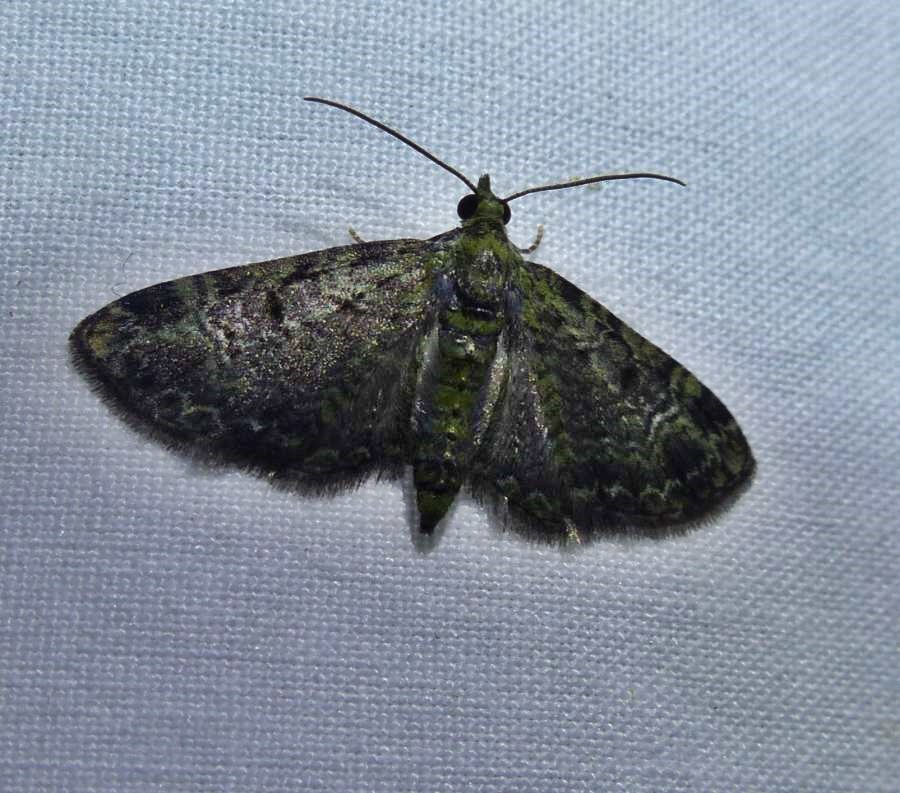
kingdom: Animalia
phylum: Arthropoda
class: Insecta
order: Lepidoptera
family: Geometridae
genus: Pasiphila
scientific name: Pasiphila rectangulata
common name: Green pug
